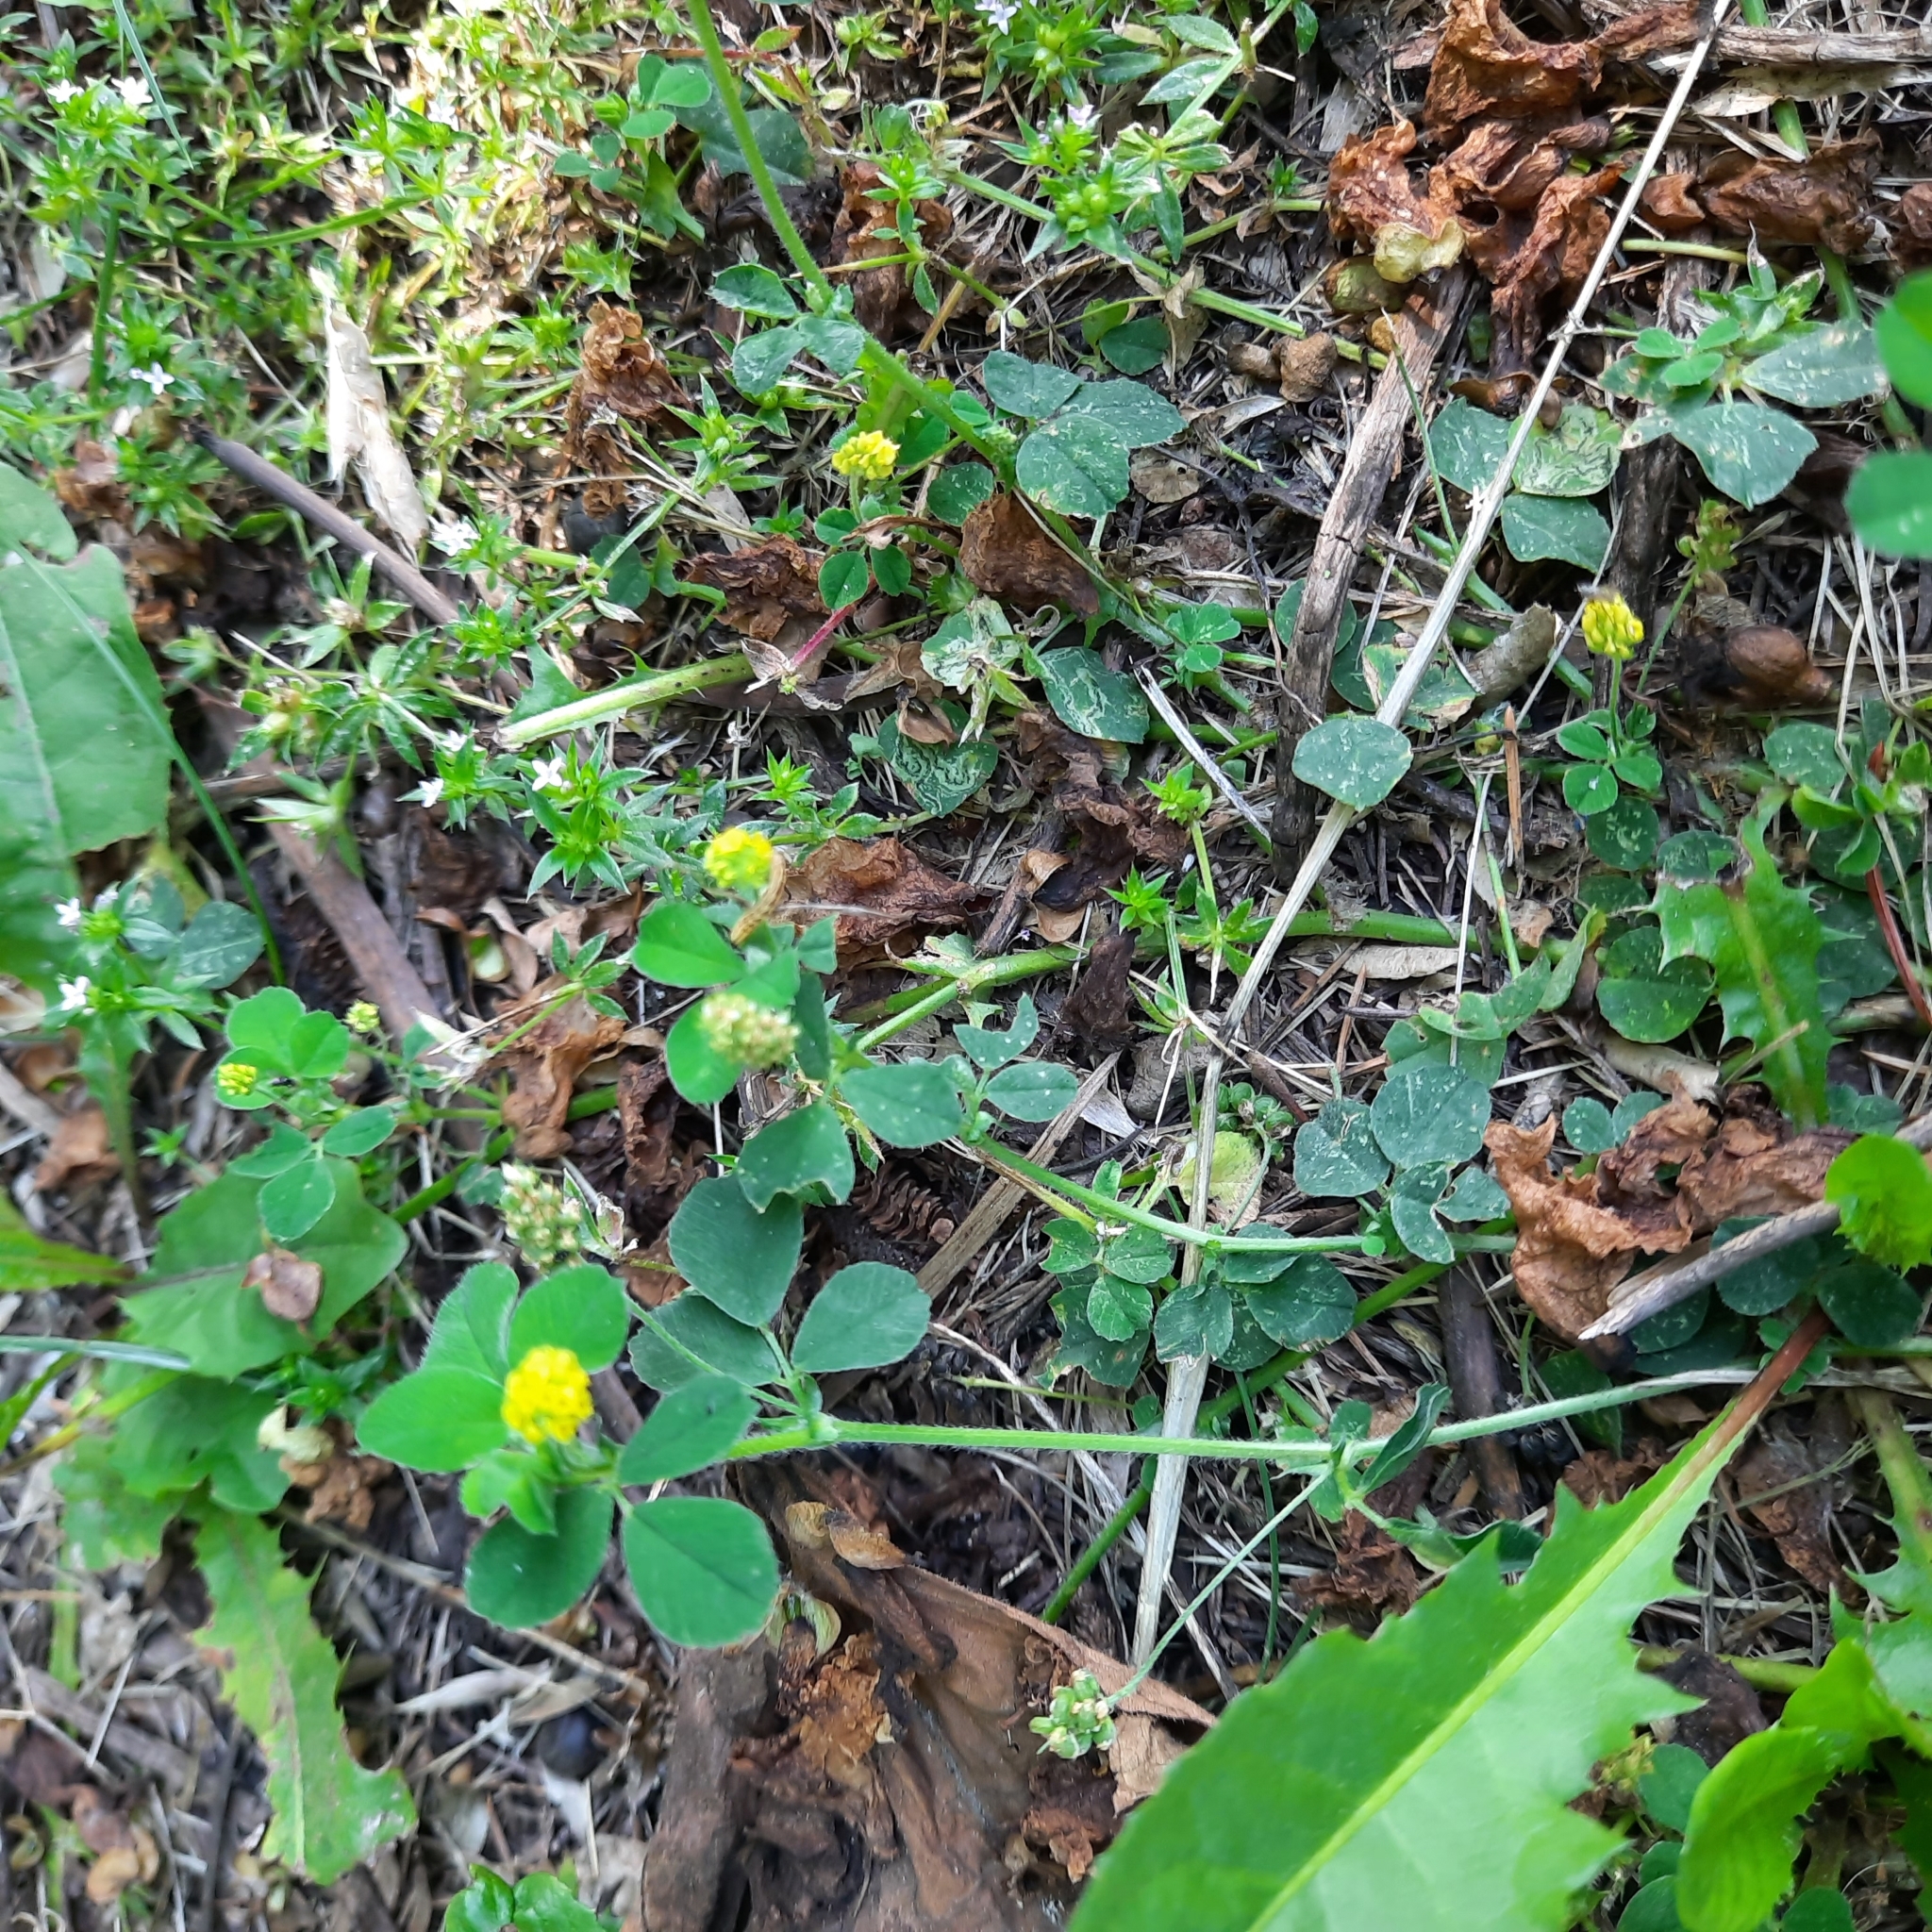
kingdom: Plantae
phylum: Tracheophyta
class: Magnoliopsida
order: Fabales
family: Fabaceae
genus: Medicago
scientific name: Medicago lupulina
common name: Black medick
